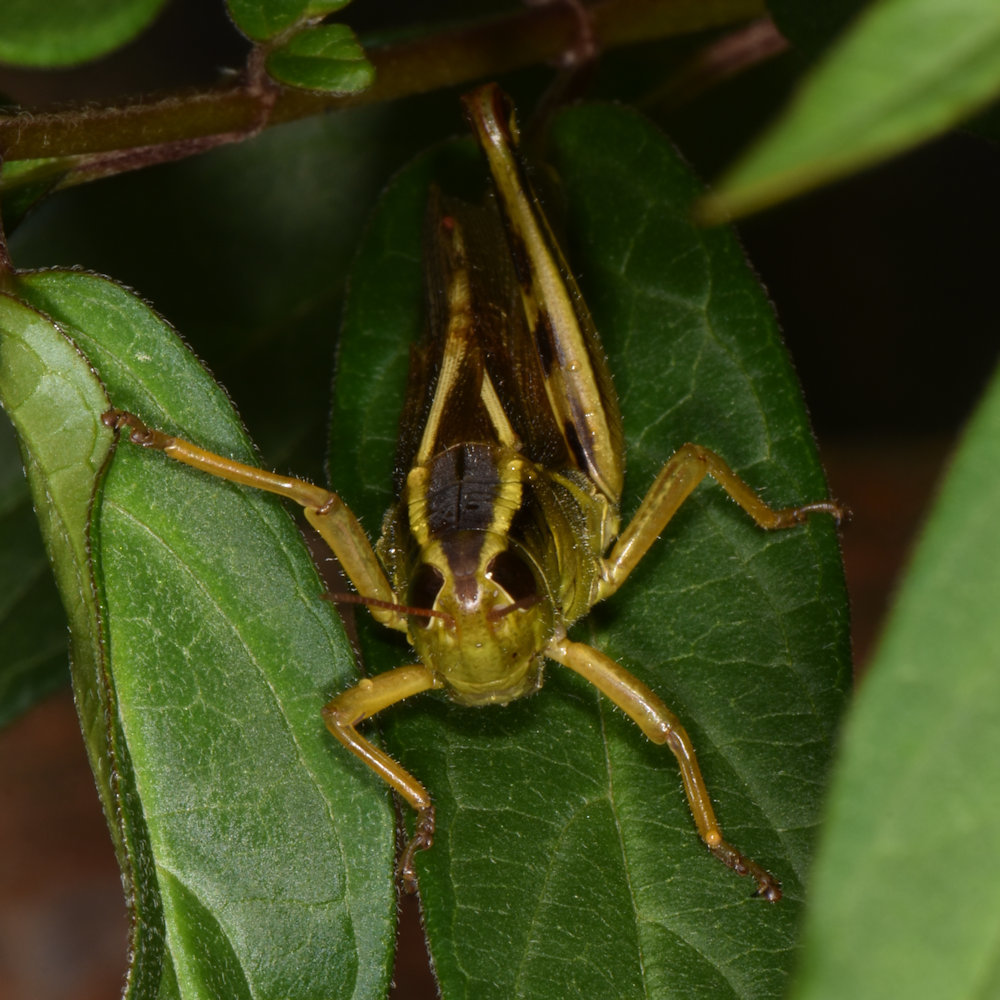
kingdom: Animalia
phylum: Arthropoda
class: Insecta
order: Orthoptera
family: Acrididae
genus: Melanoplus
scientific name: Melanoplus bivittatus
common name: Two-striped grasshopper
